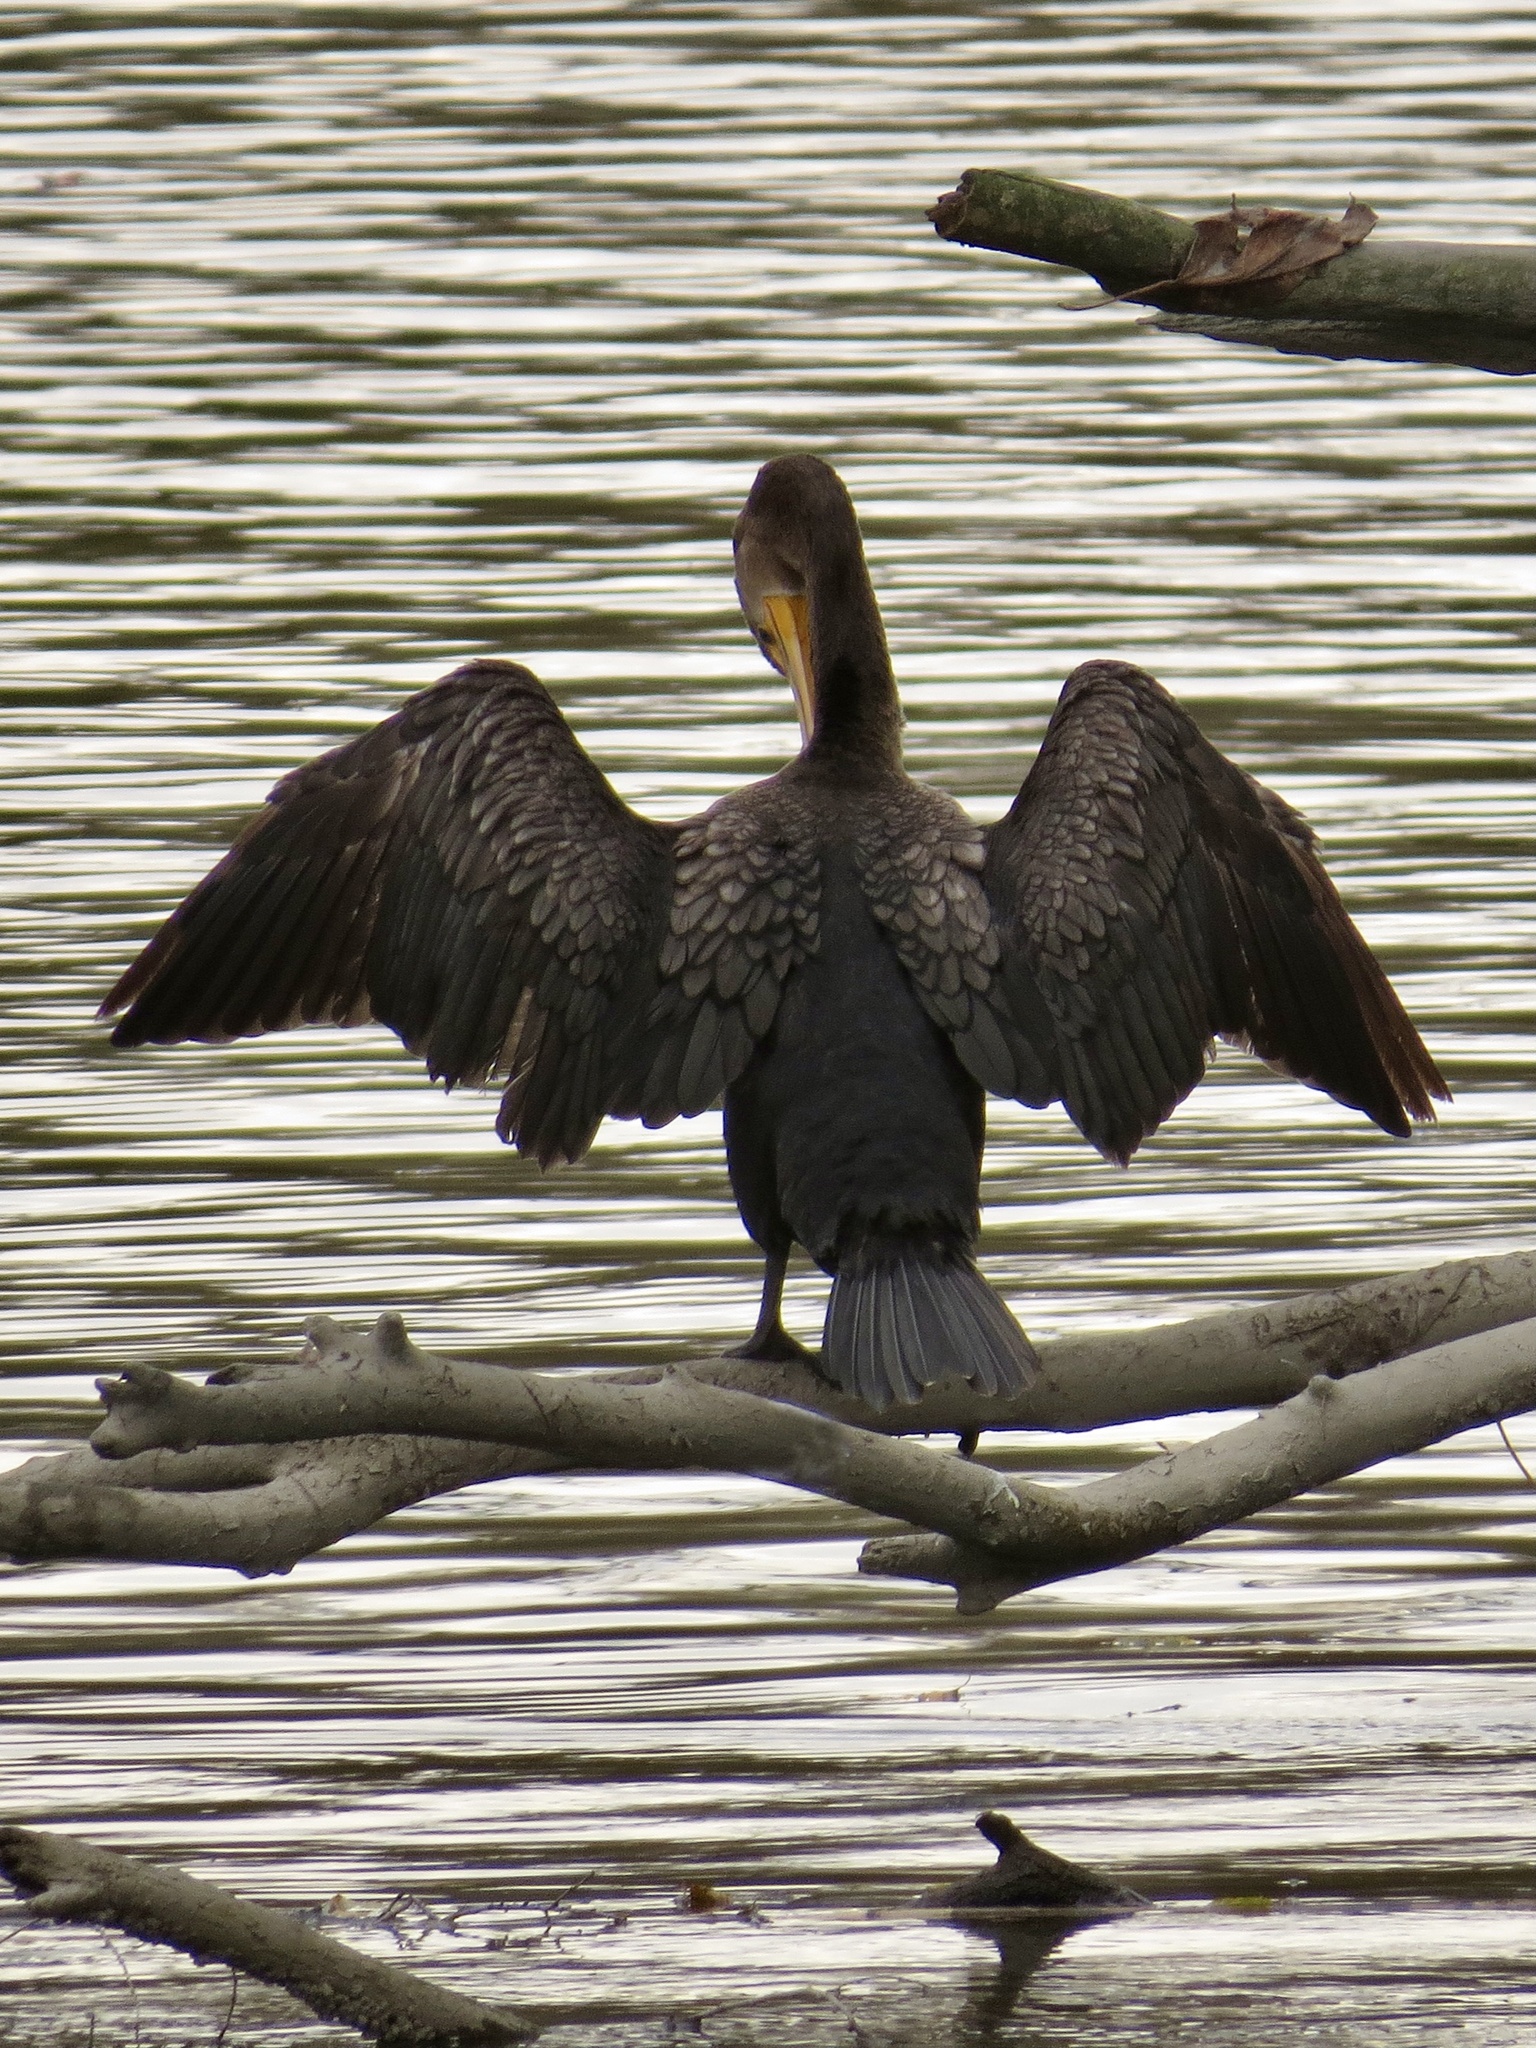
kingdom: Animalia
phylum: Chordata
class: Aves
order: Suliformes
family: Phalacrocoracidae
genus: Phalacrocorax
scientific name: Phalacrocorax auritus
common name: Double-crested cormorant
